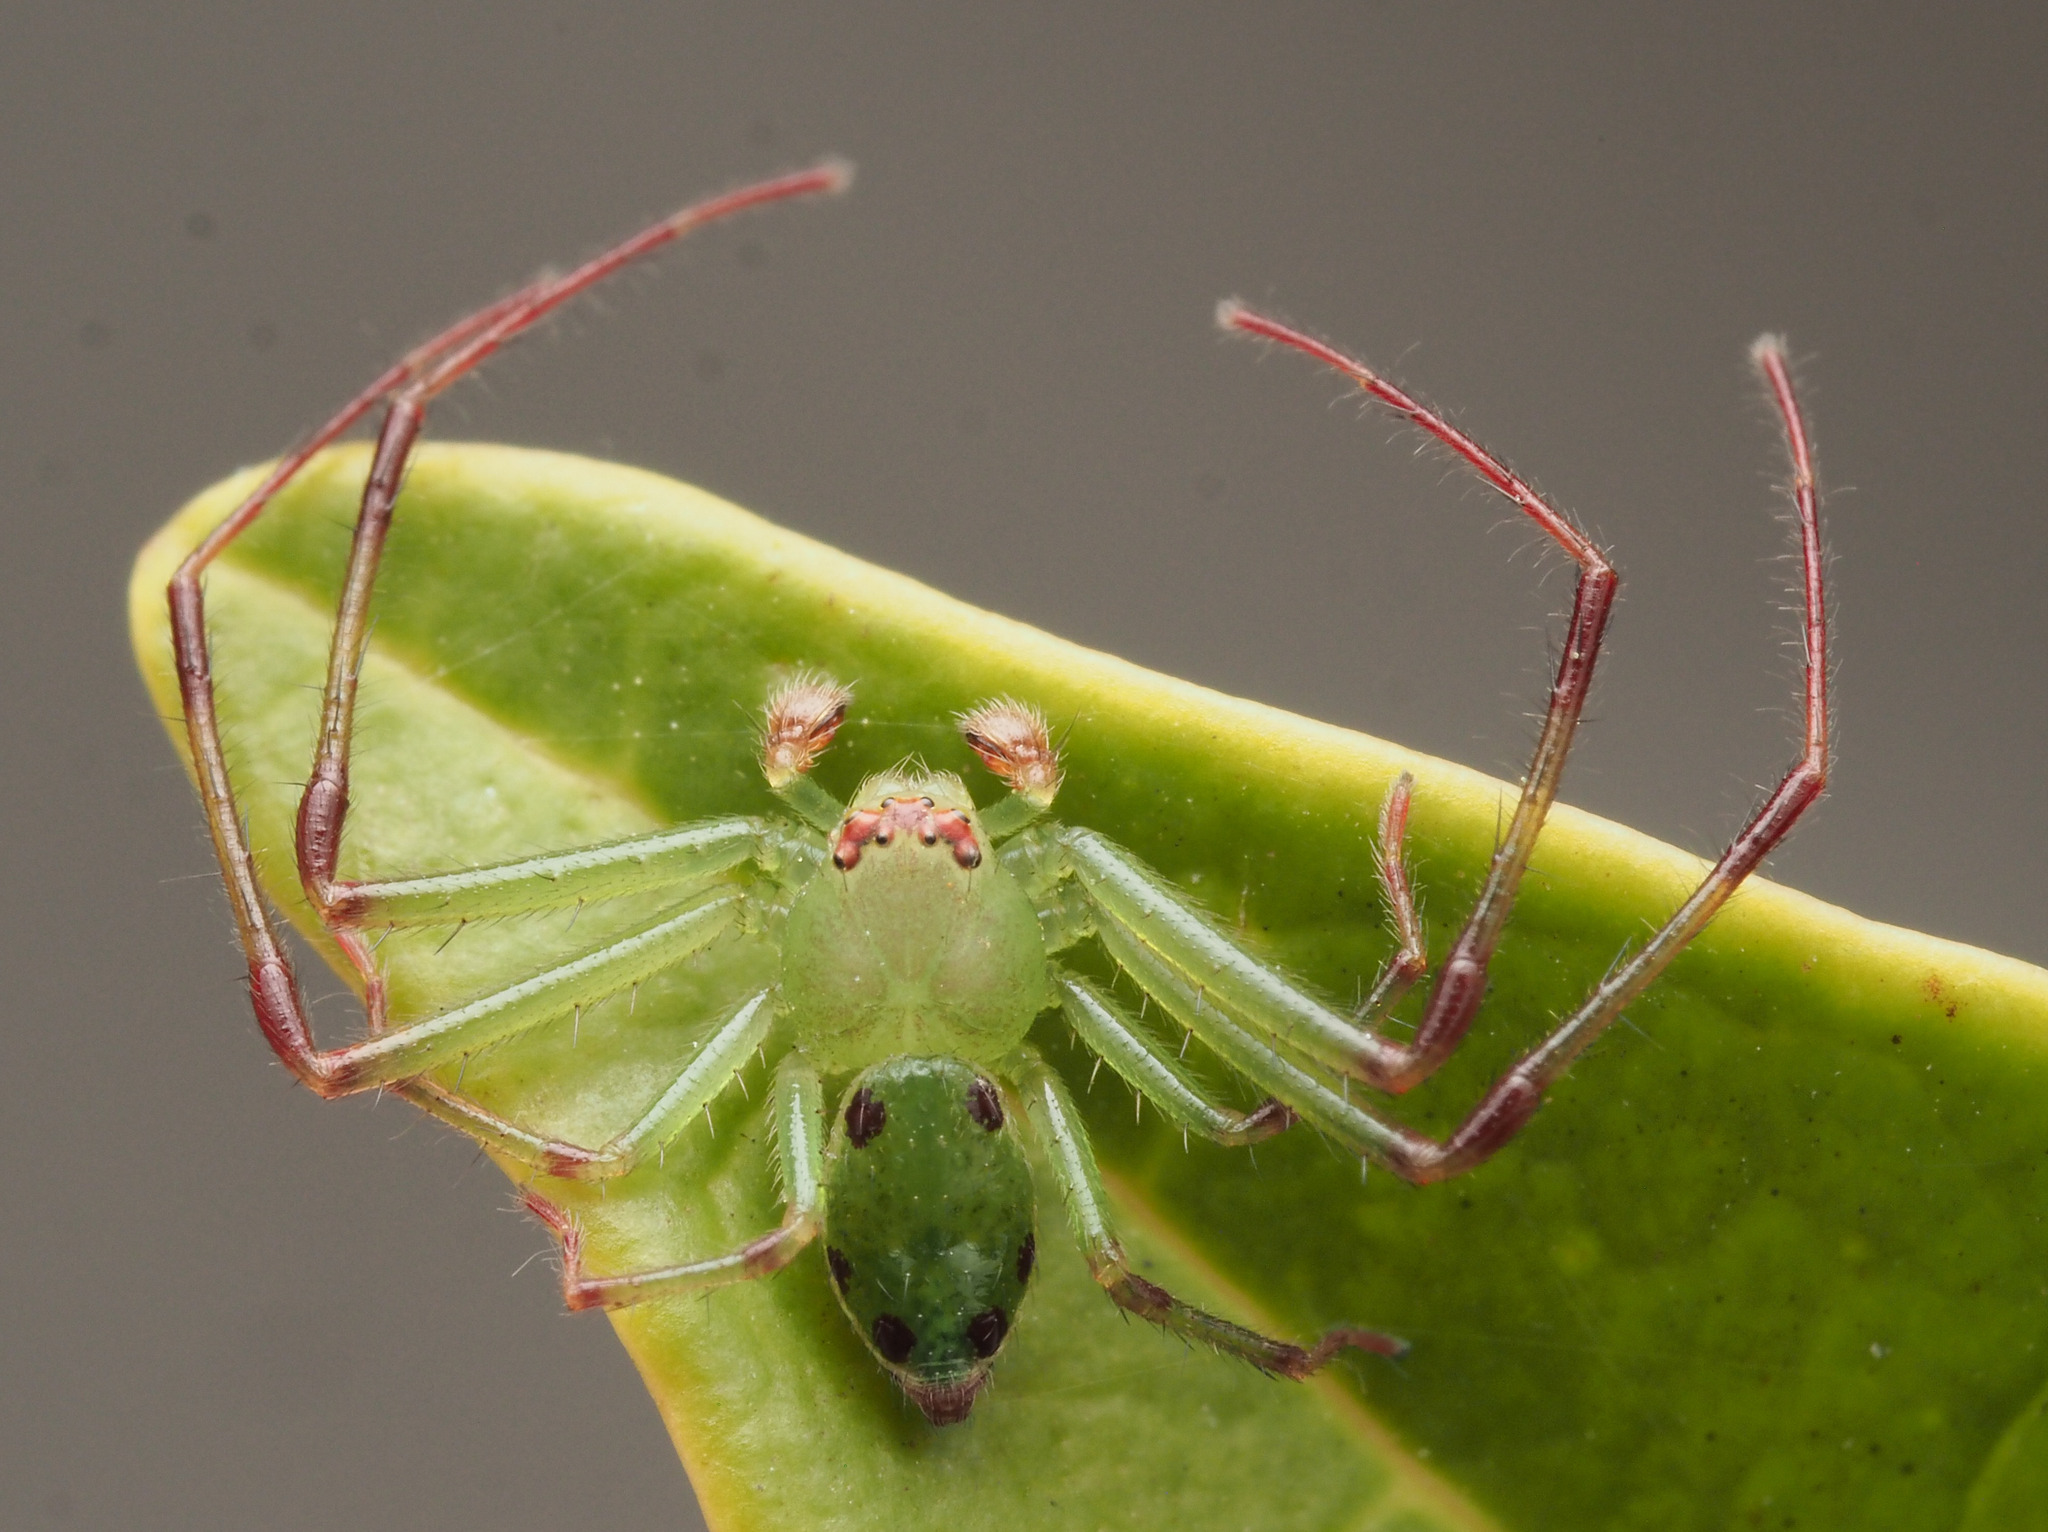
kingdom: Animalia
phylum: Arthropoda
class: Arachnida
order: Araneae
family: Thomisidae
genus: Australomisidia
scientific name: Australomisidia
